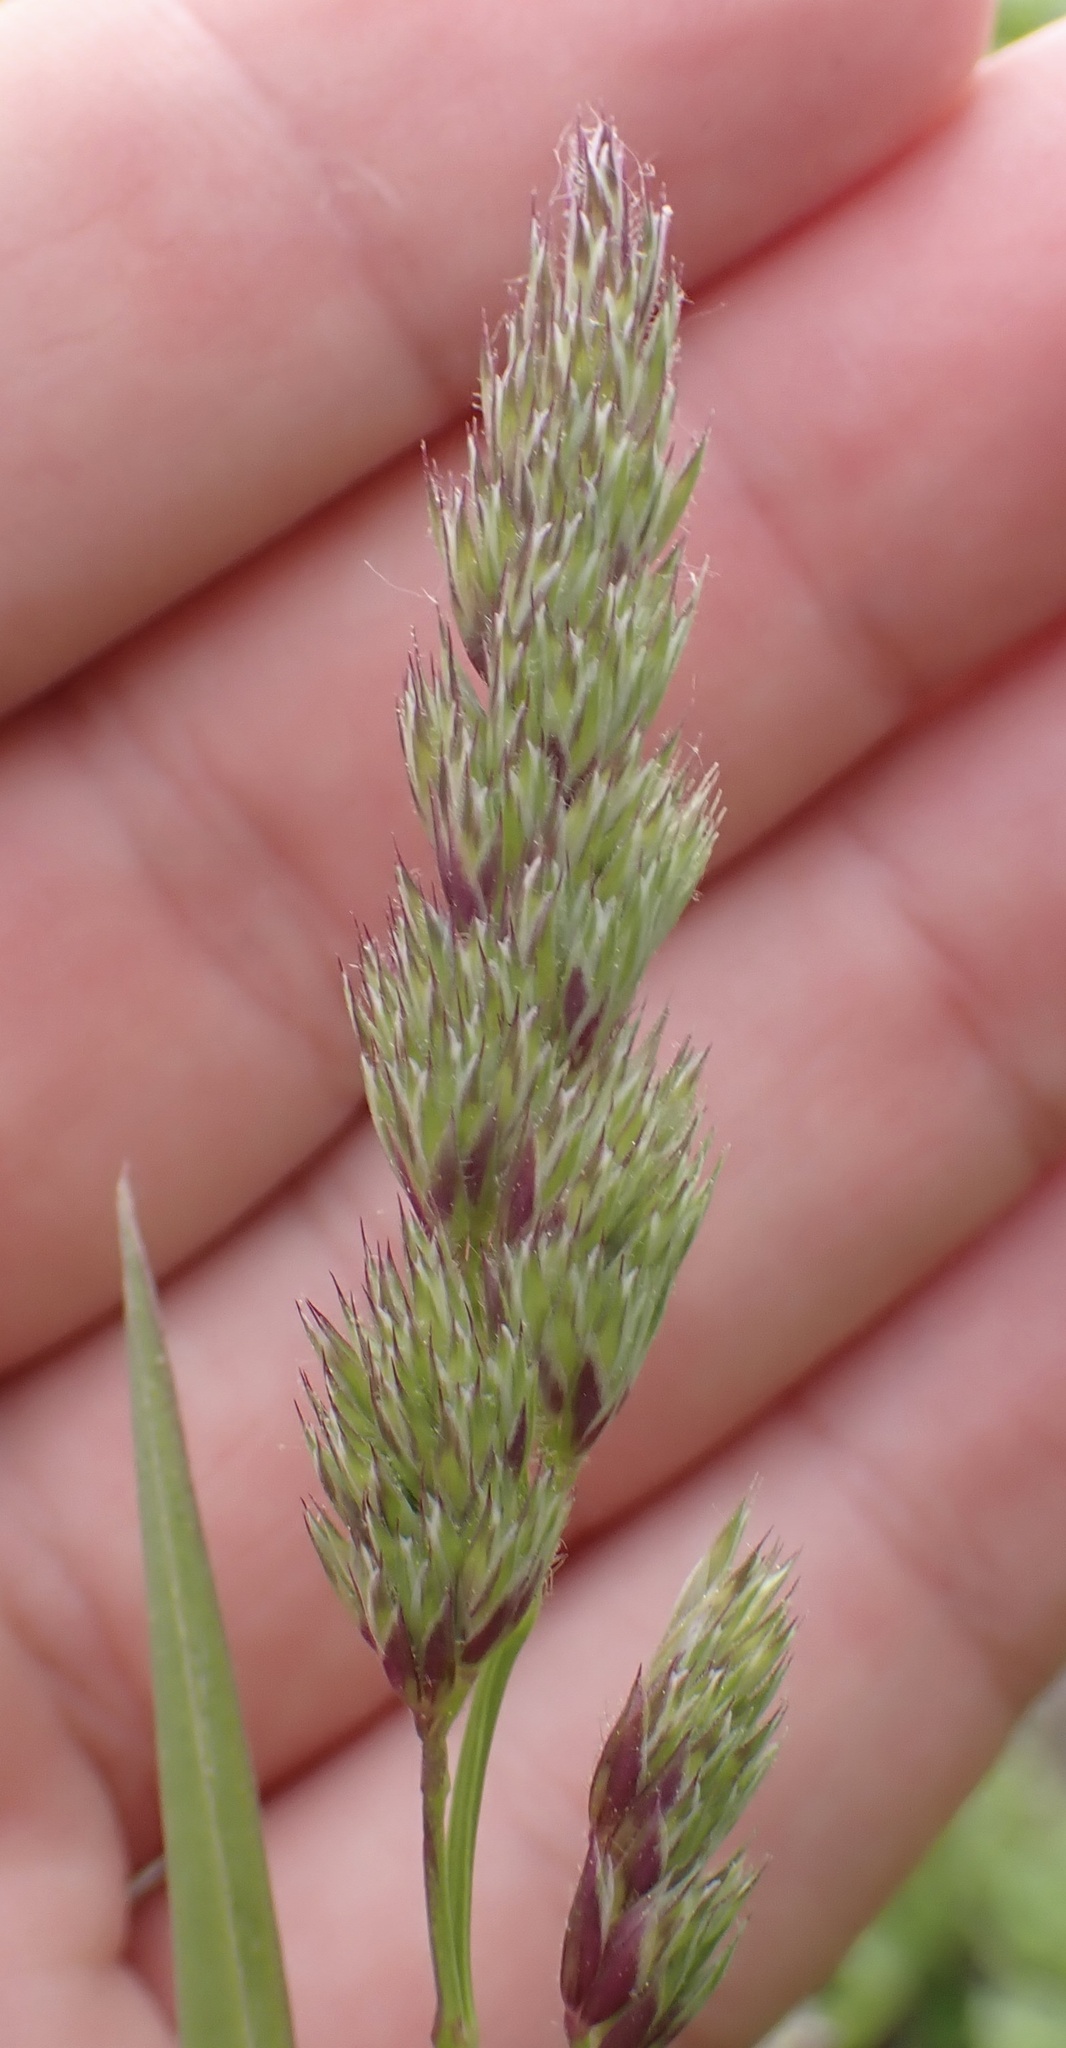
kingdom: Plantae
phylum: Tracheophyta
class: Liliopsida
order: Poales
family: Poaceae
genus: Dactylis
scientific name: Dactylis glomerata
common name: Orchardgrass
